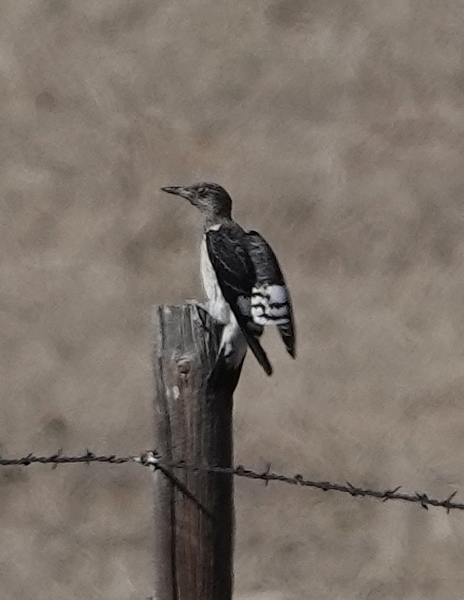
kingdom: Animalia
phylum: Chordata
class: Aves
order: Piciformes
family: Picidae
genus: Melanerpes
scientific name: Melanerpes erythrocephalus
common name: Red-headed woodpecker
